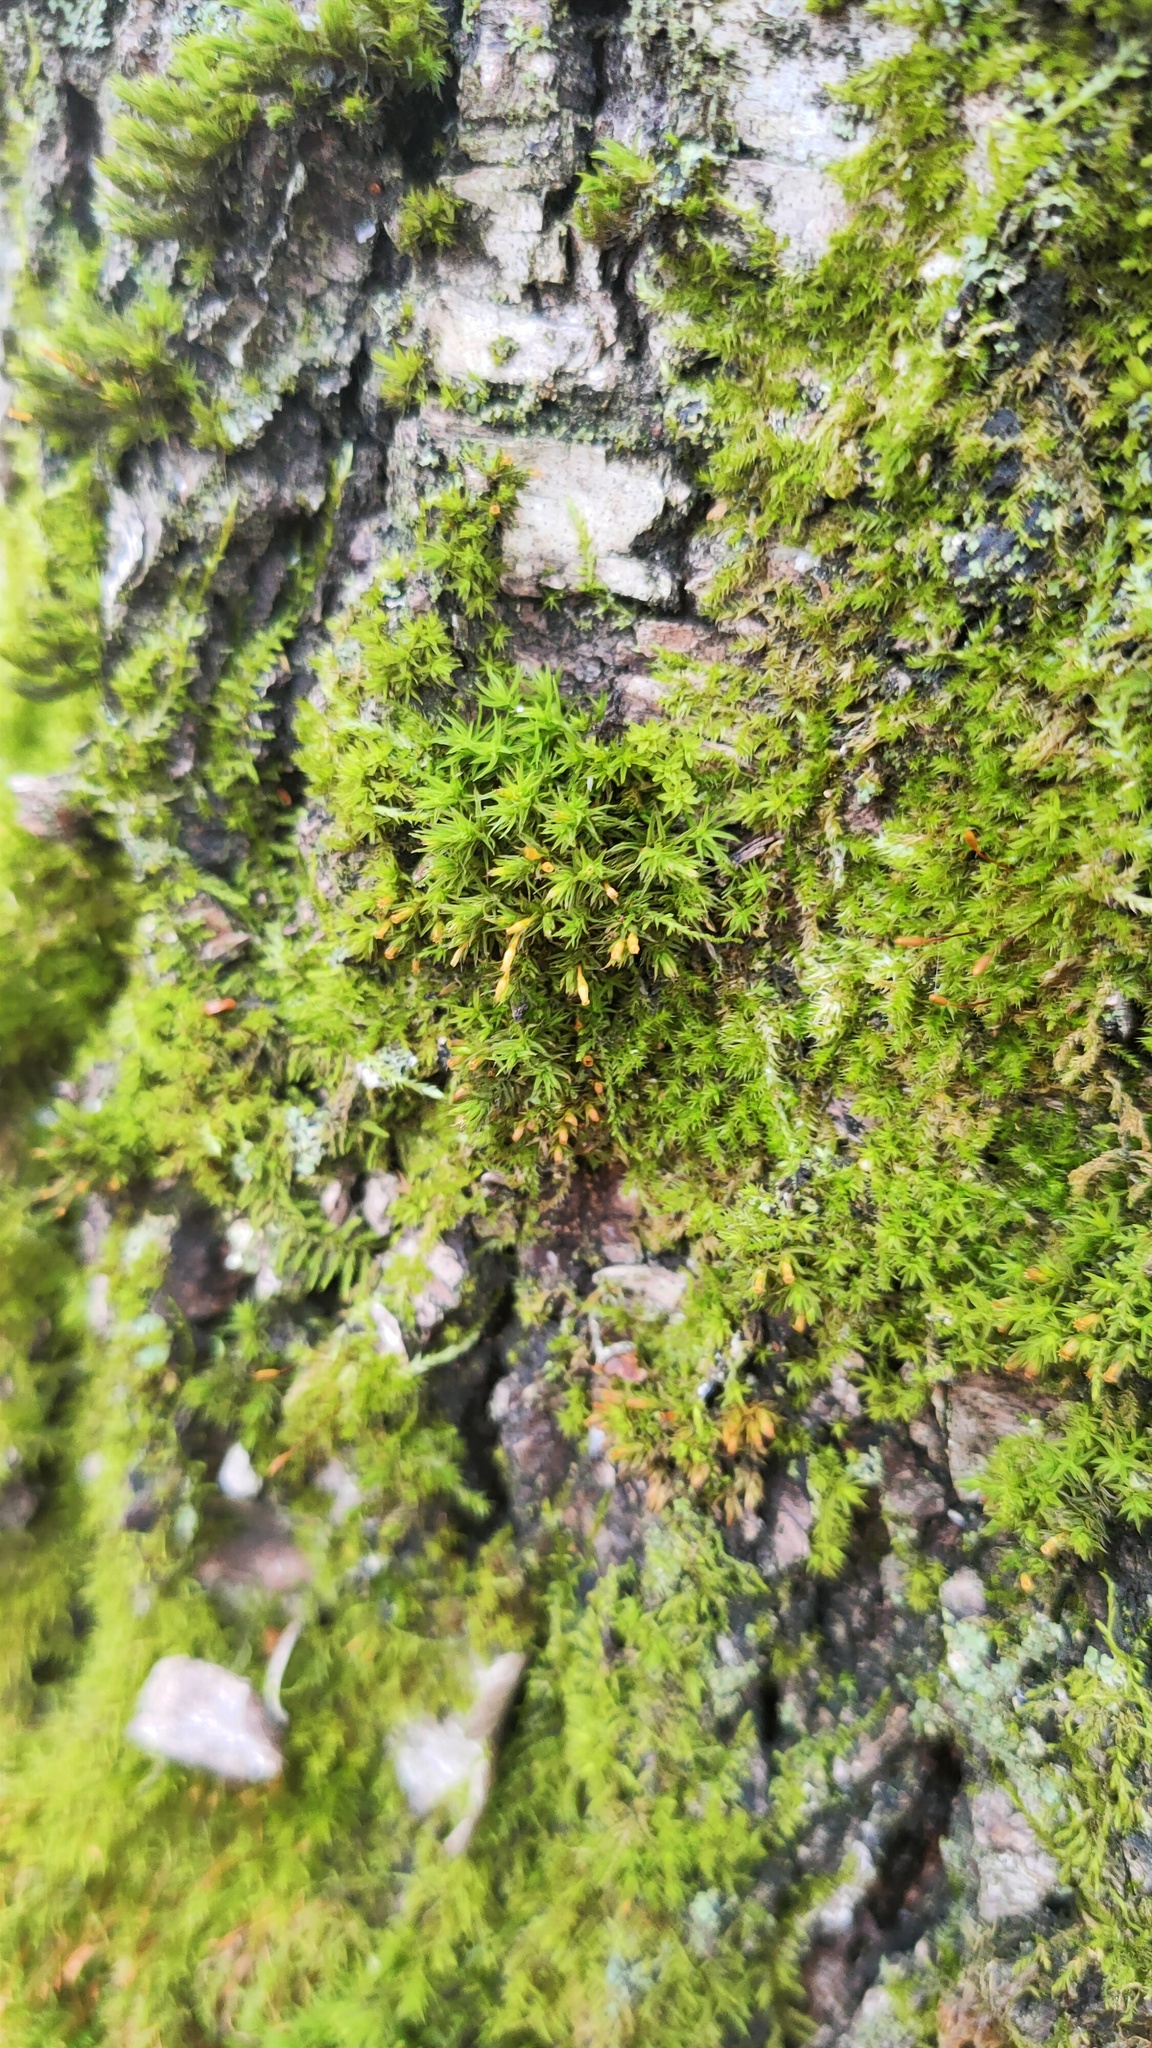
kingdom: Plantae
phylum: Bryophyta
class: Bryopsida
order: Orthotrichales
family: Orthotrichaceae
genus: Lewinskya
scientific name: Lewinskya speciosa
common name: Showy bristle moss
